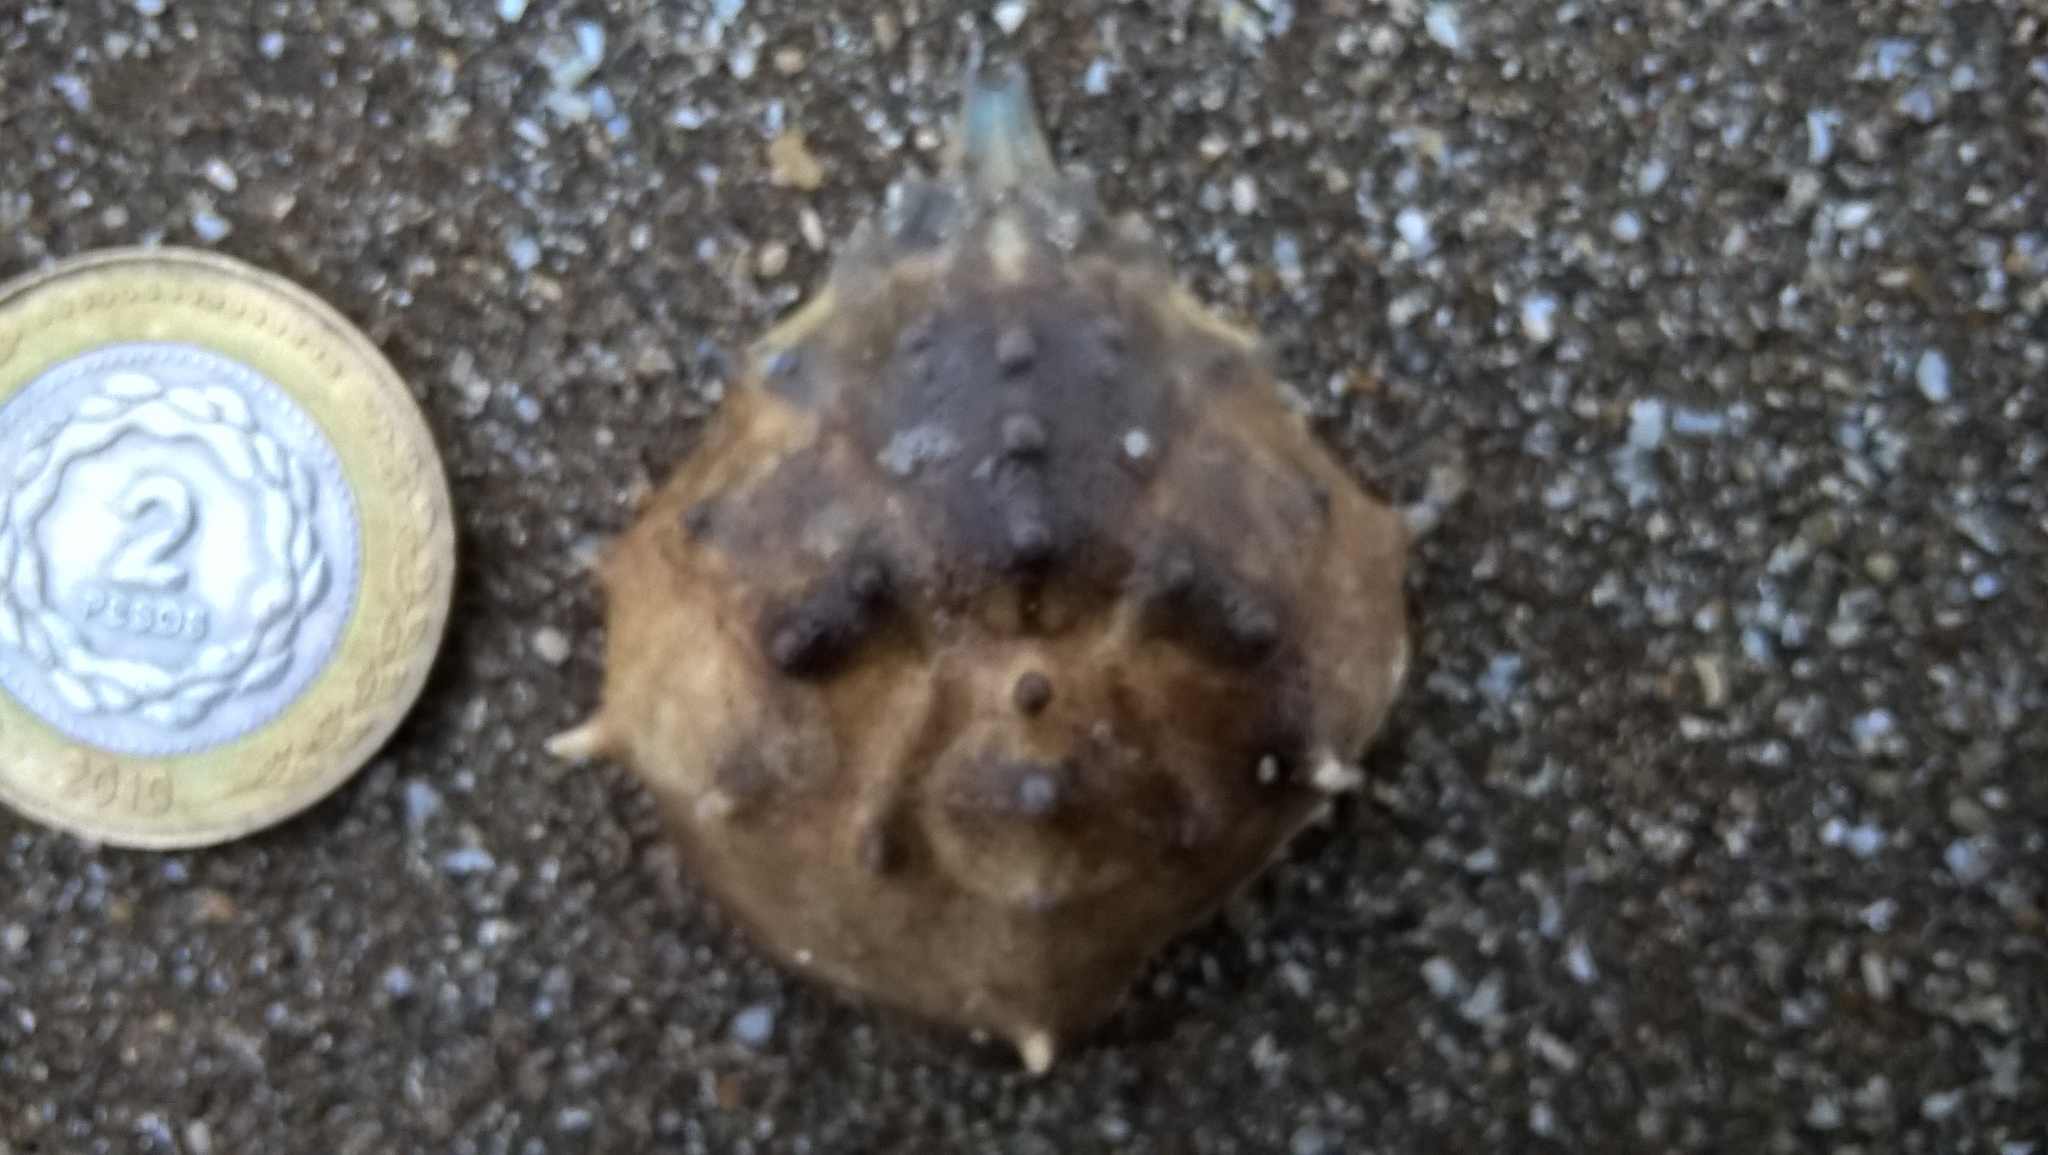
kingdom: Animalia
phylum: Arthropoda
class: Malacostraca
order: Decapoda
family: Epialtidae
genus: Libinia
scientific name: Libinia spinosa
